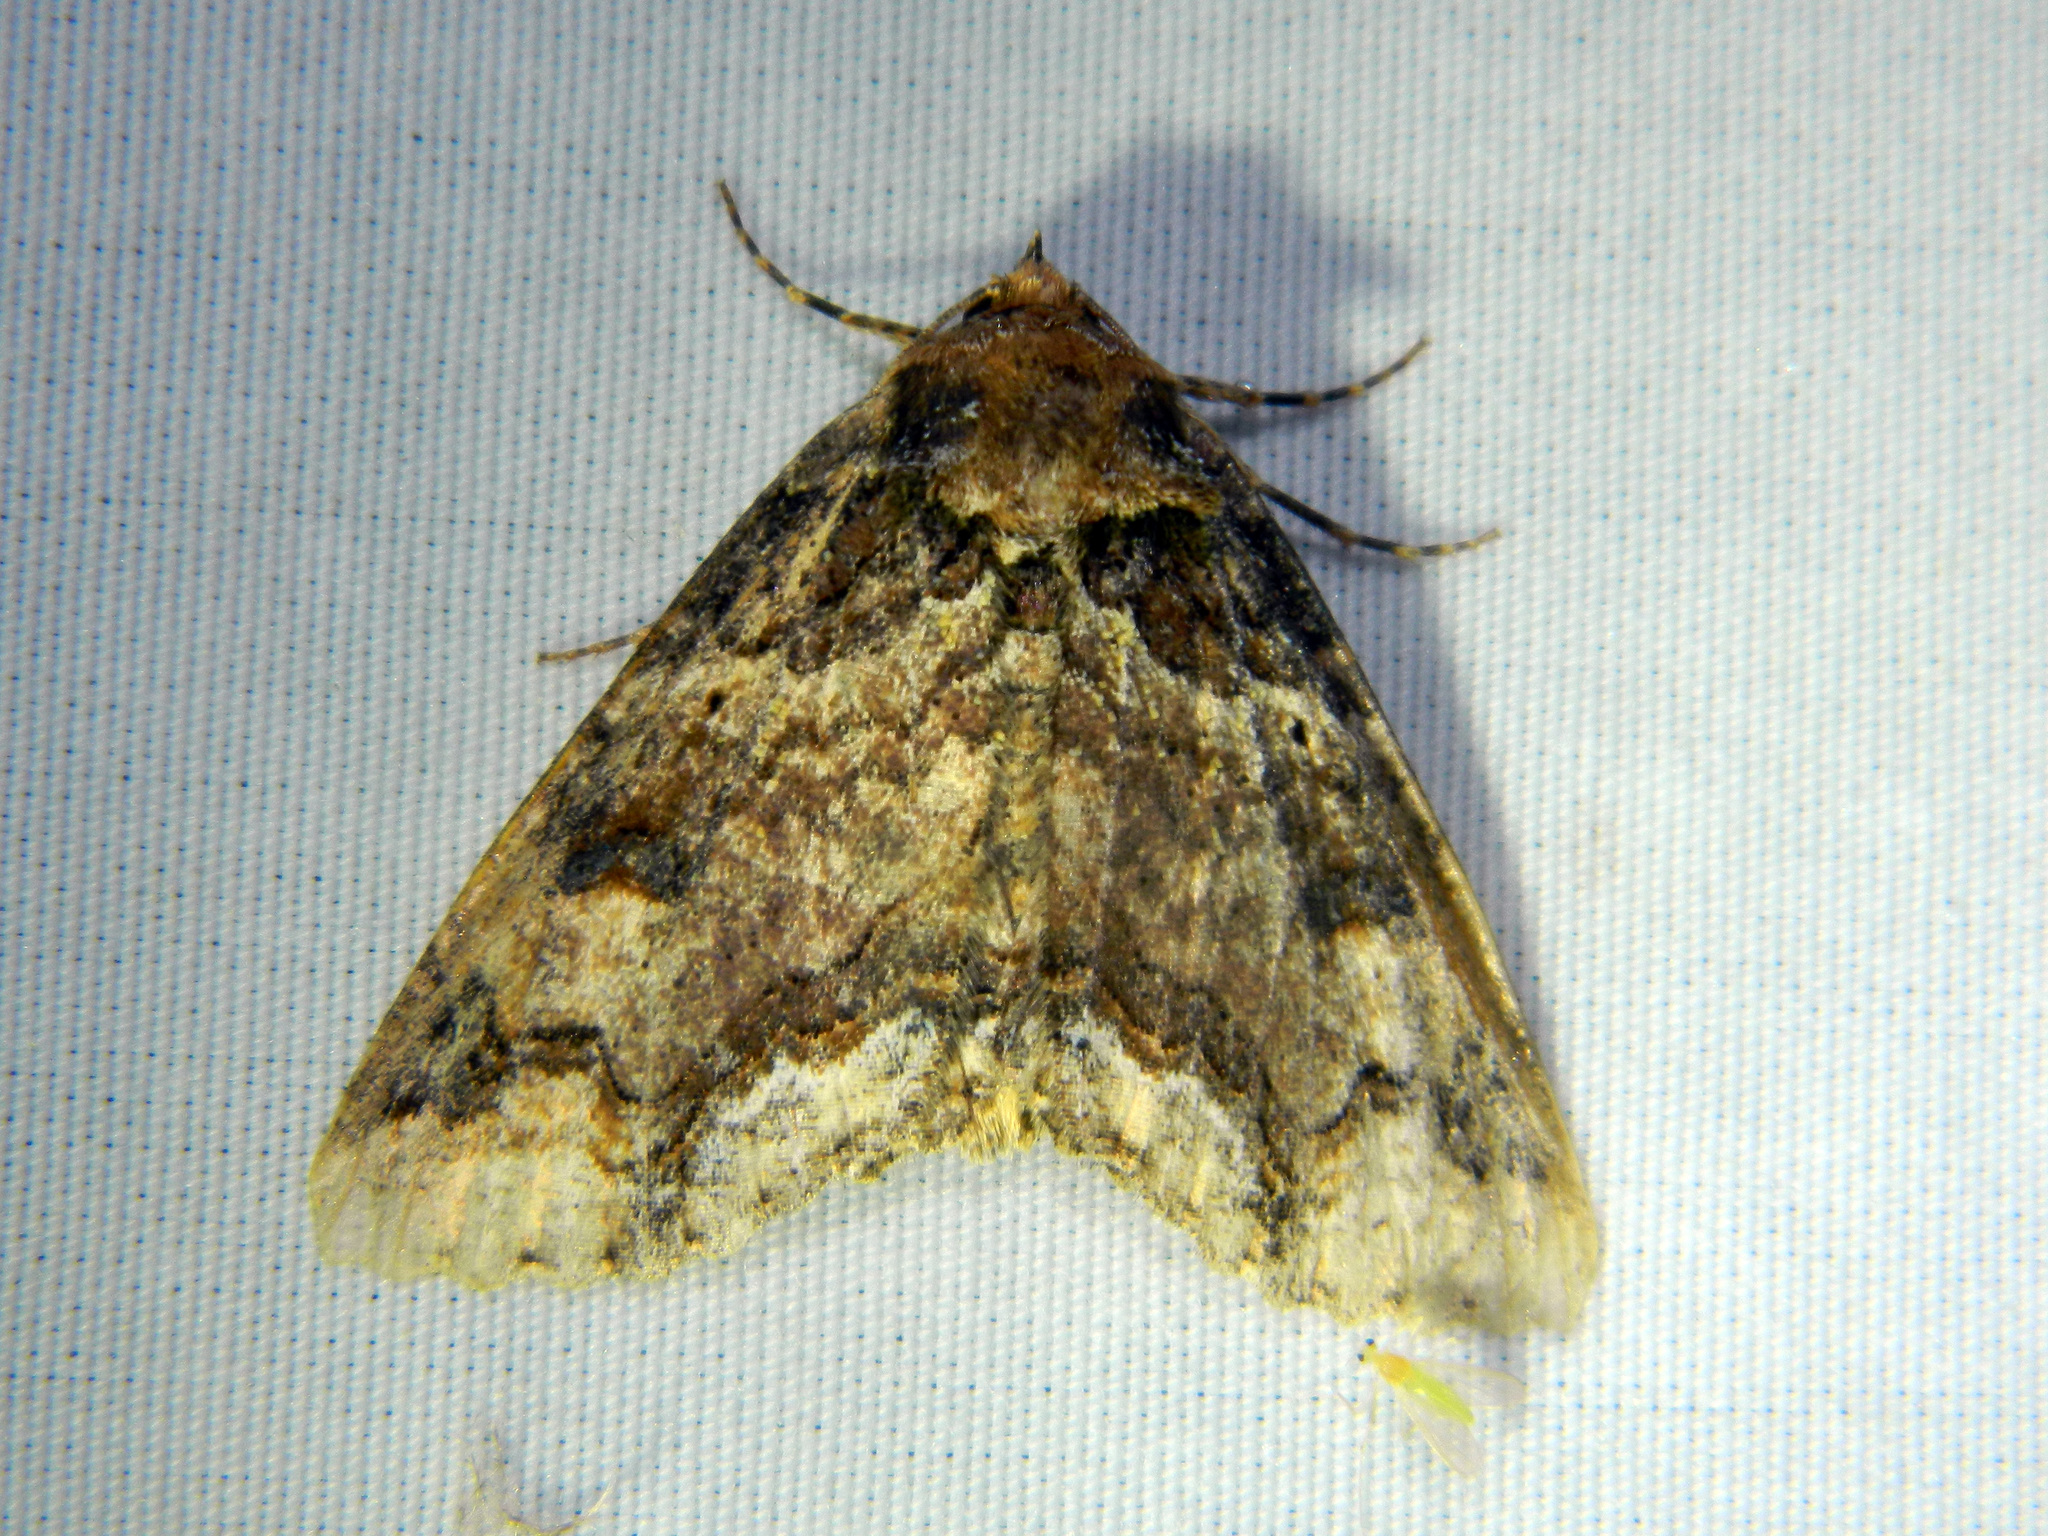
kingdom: Animalia
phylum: Arthropoda
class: Insecta
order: Lepidoptera
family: Erebidae
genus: Zale
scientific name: Zale minerea
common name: Colorful zale moth
